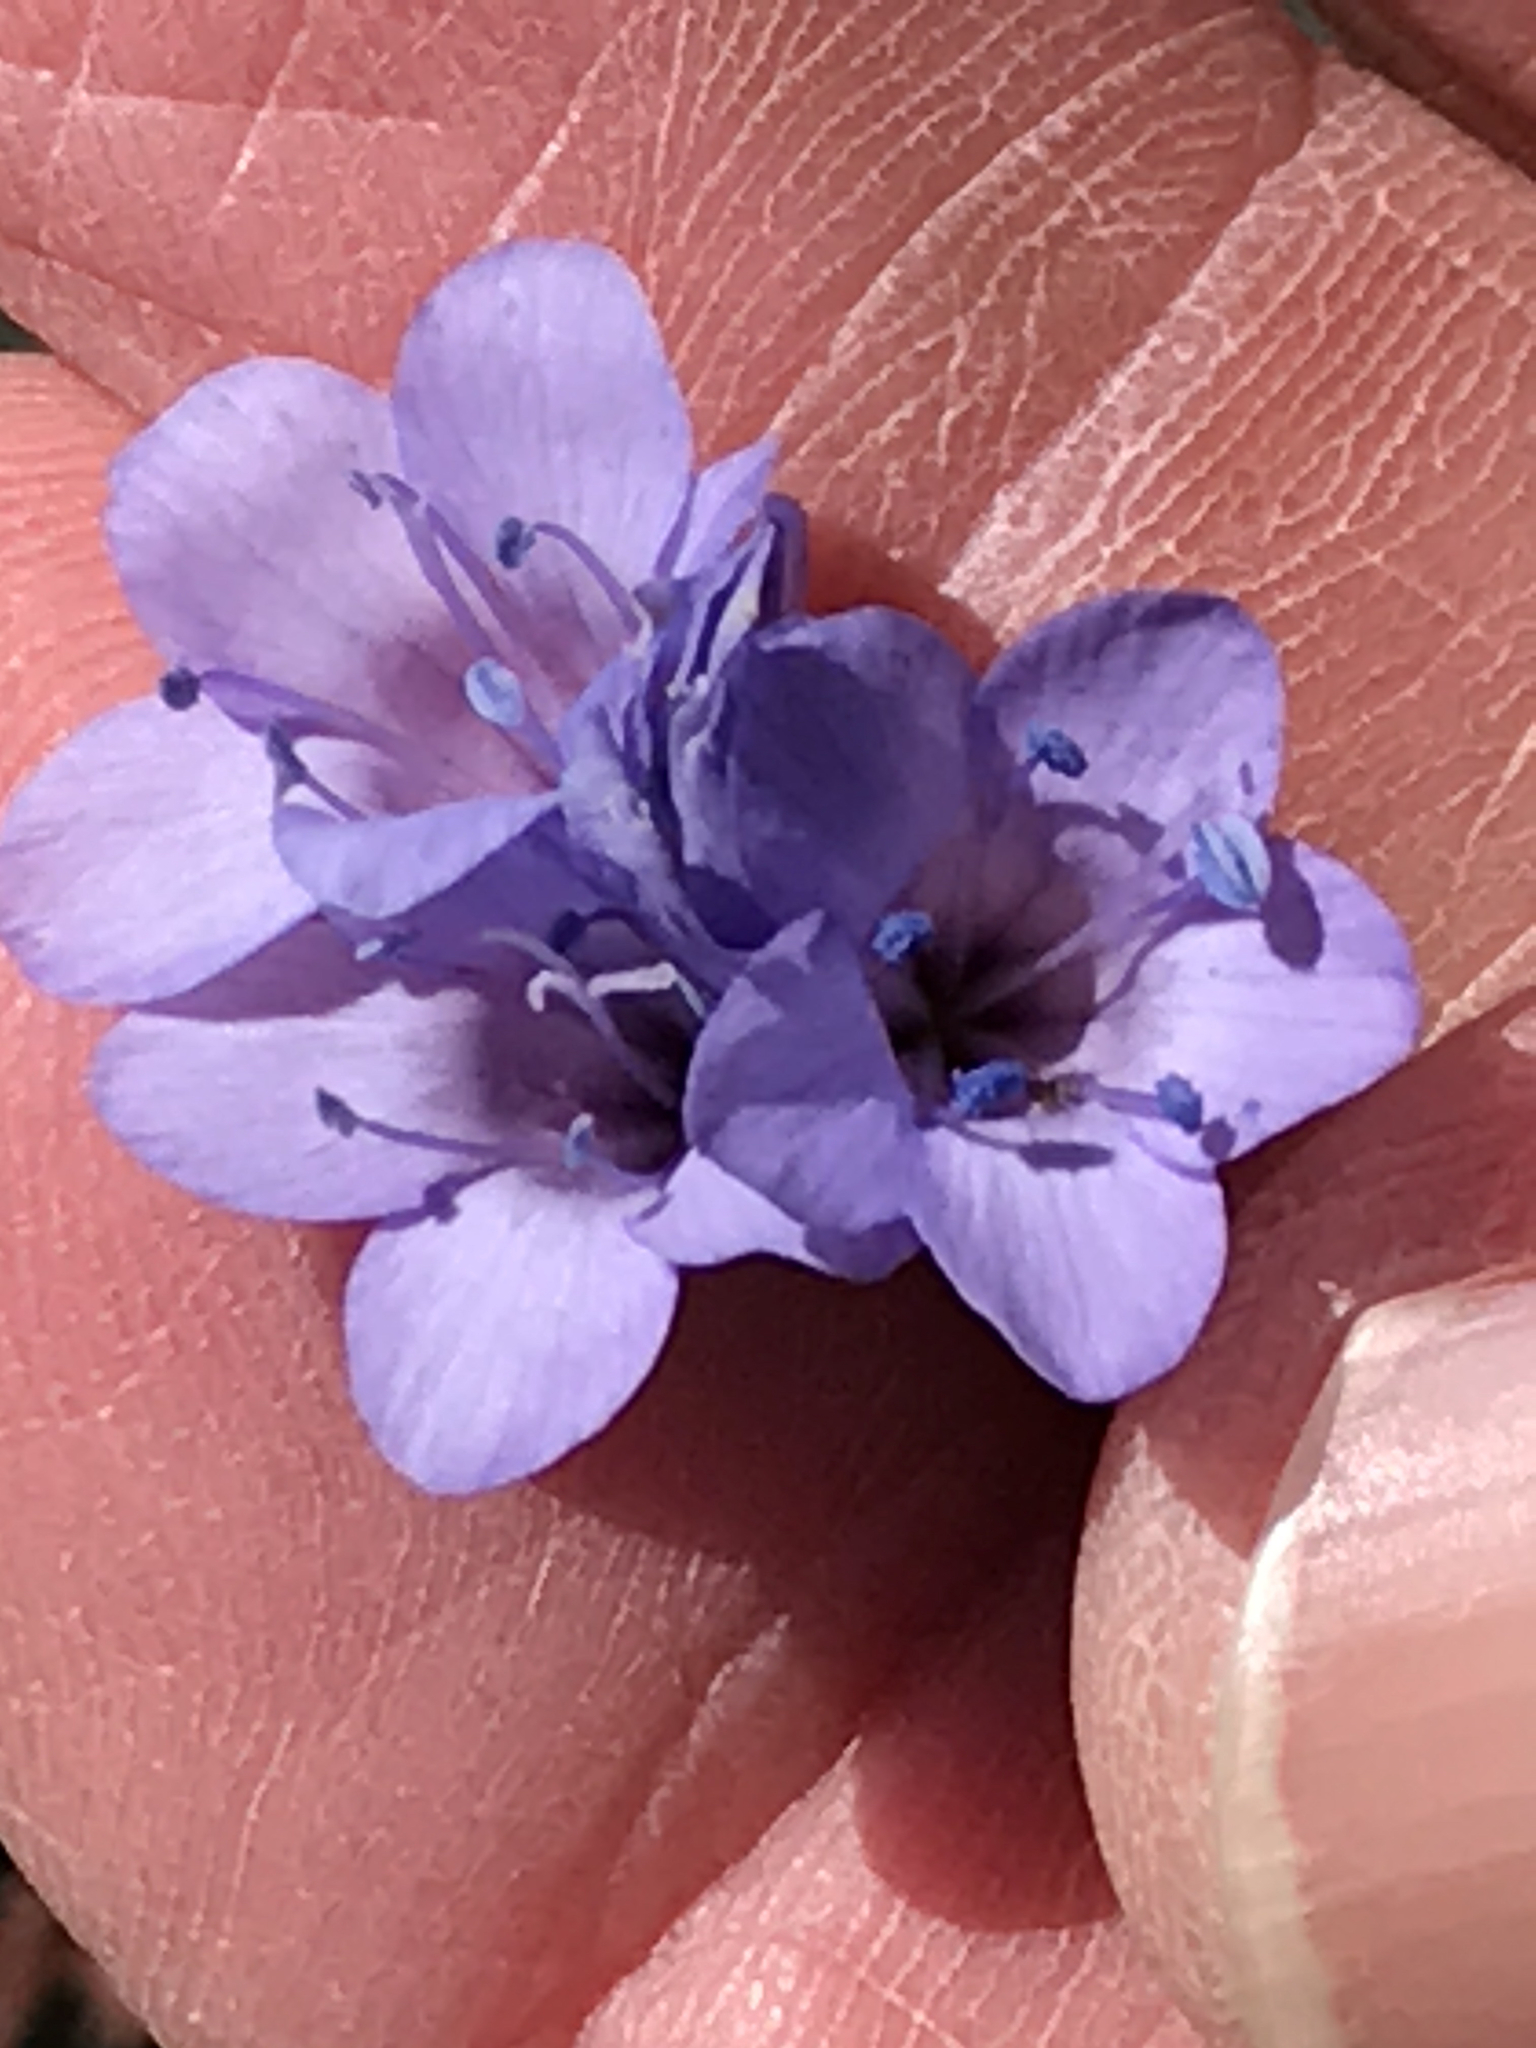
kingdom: Plantae
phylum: Tracheophyta
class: Magnoliopsida
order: Ericales
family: Polemoniaceae
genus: Gilia
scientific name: Gilia achilleifolia
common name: California gily-flower
